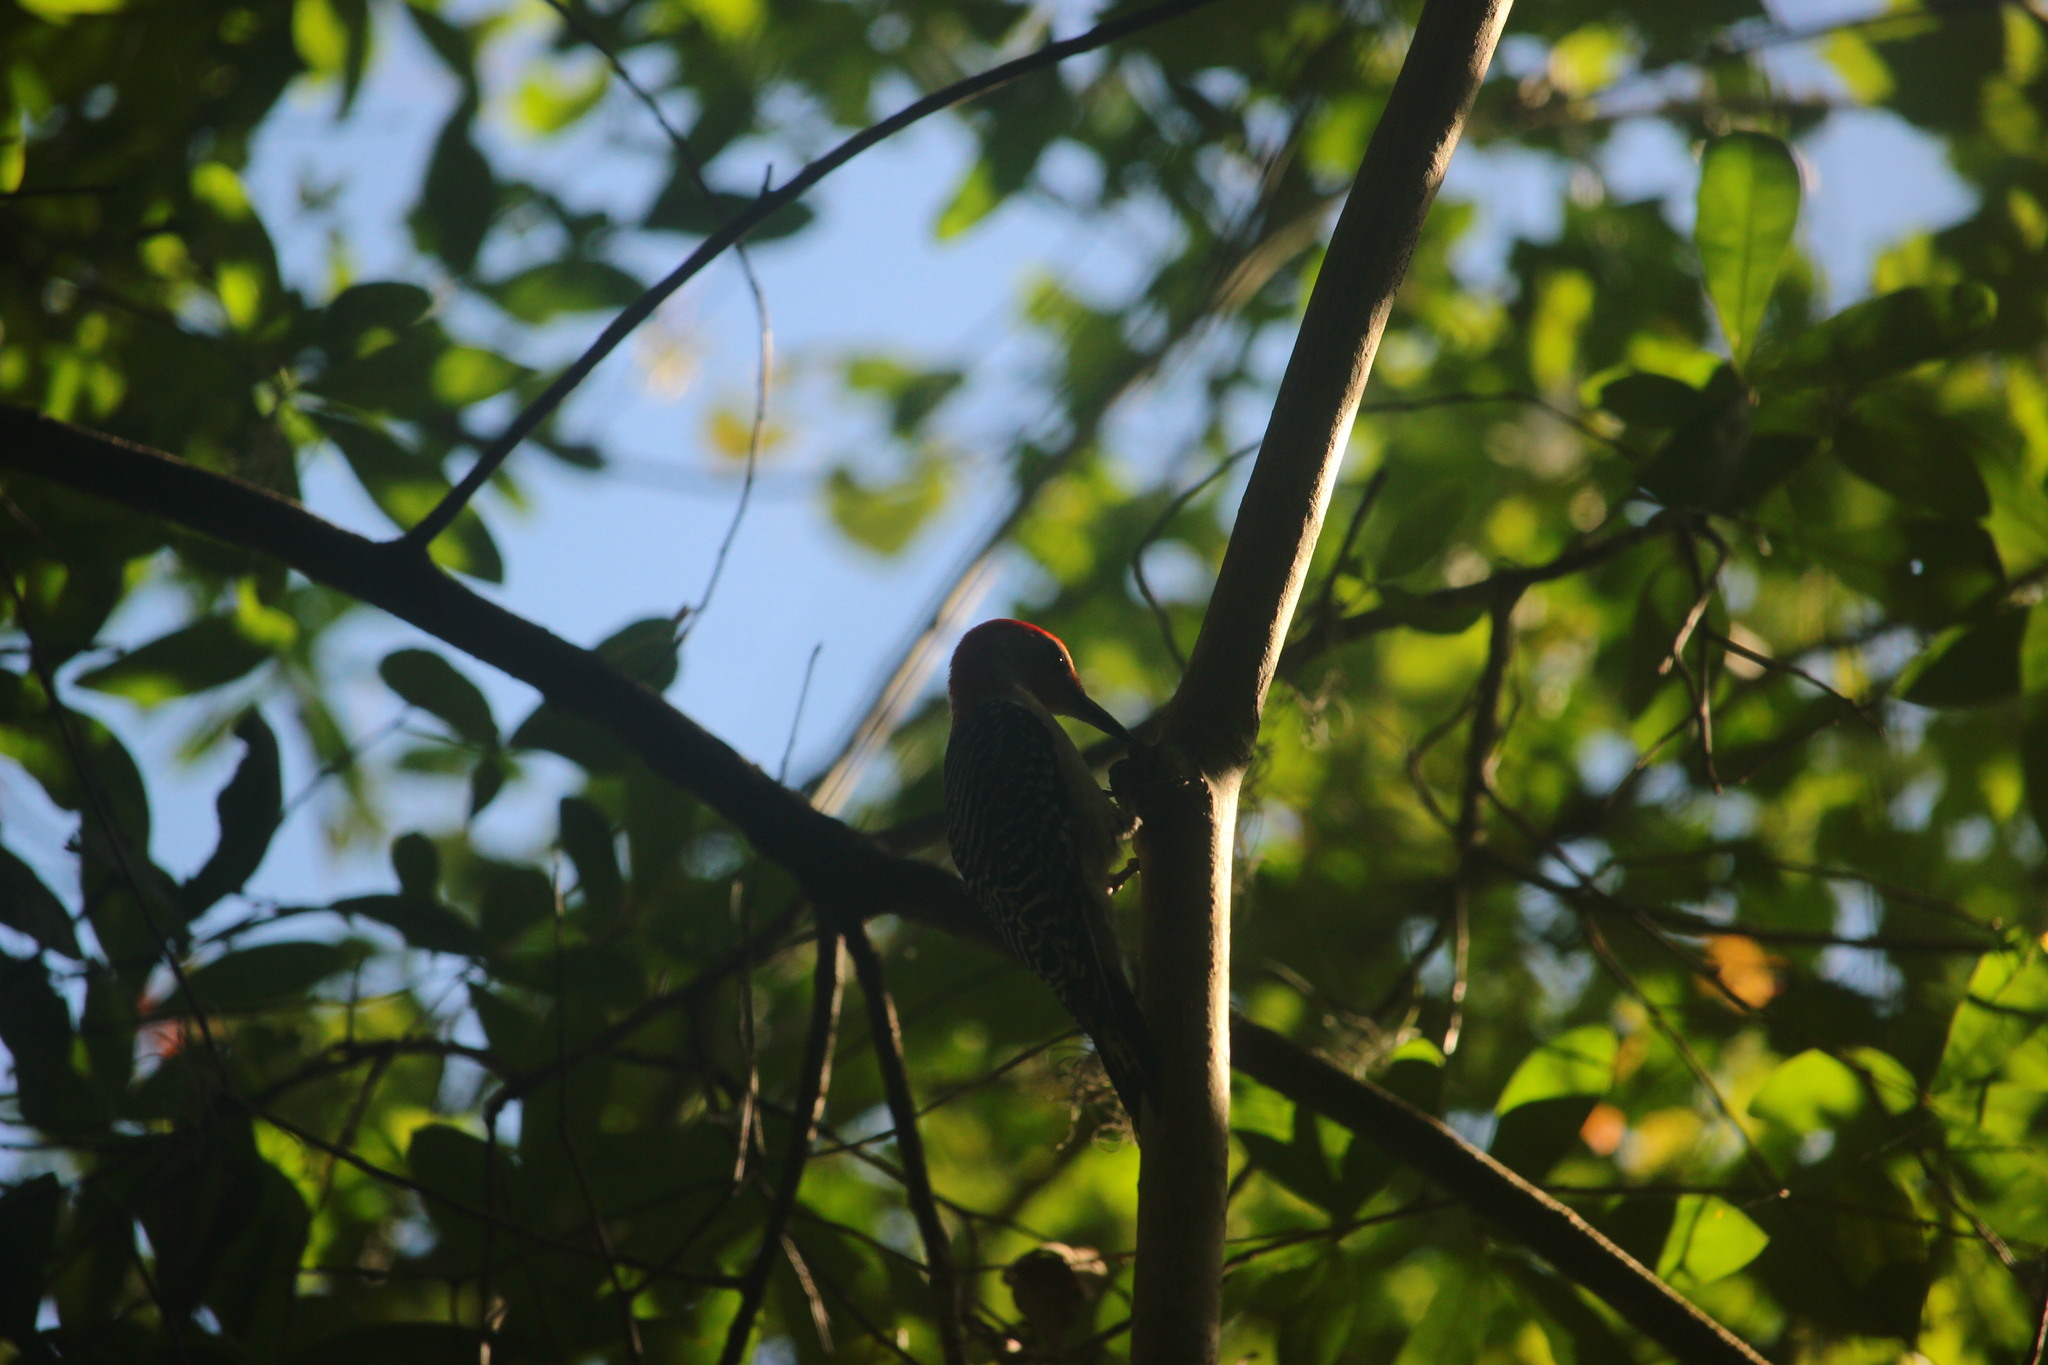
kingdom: Animalia
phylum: Chordata
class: Aves
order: Piciformes
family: Picidae
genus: Melanerpes
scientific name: Melanerpes carolinus
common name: Red-bellied woodpecker
